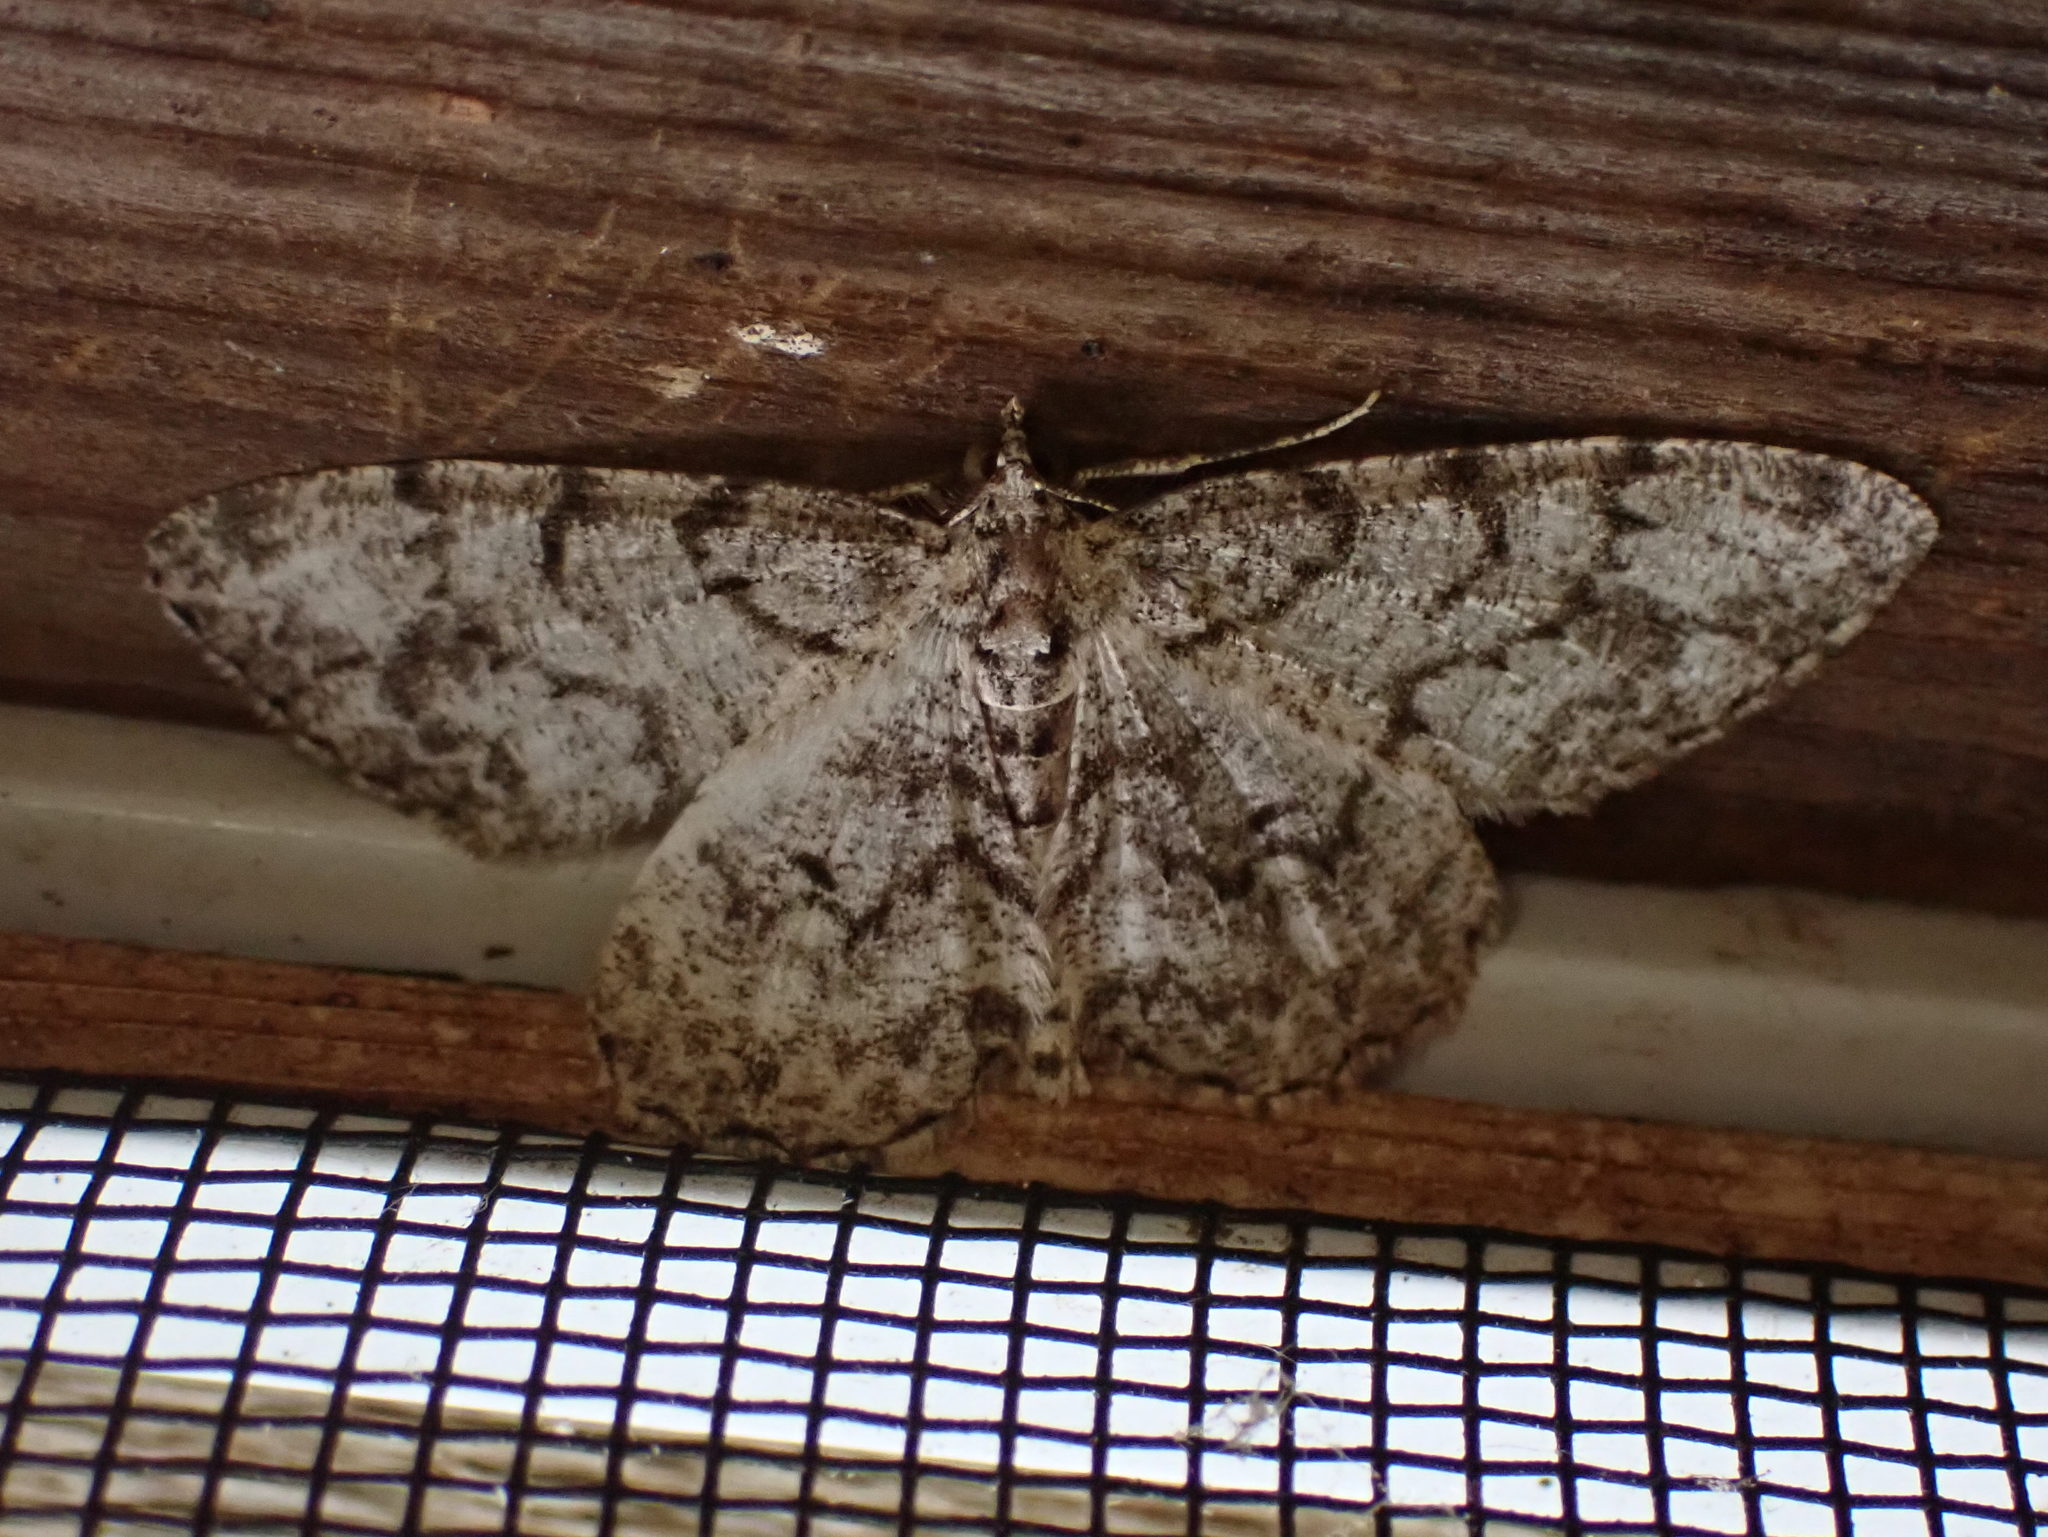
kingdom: Animalia
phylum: Arthropoda
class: Insecta
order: Lepidoptera
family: Geometridae
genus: Protoboarmia
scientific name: Protoboarmia porcelaria
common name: Porcelain gray
